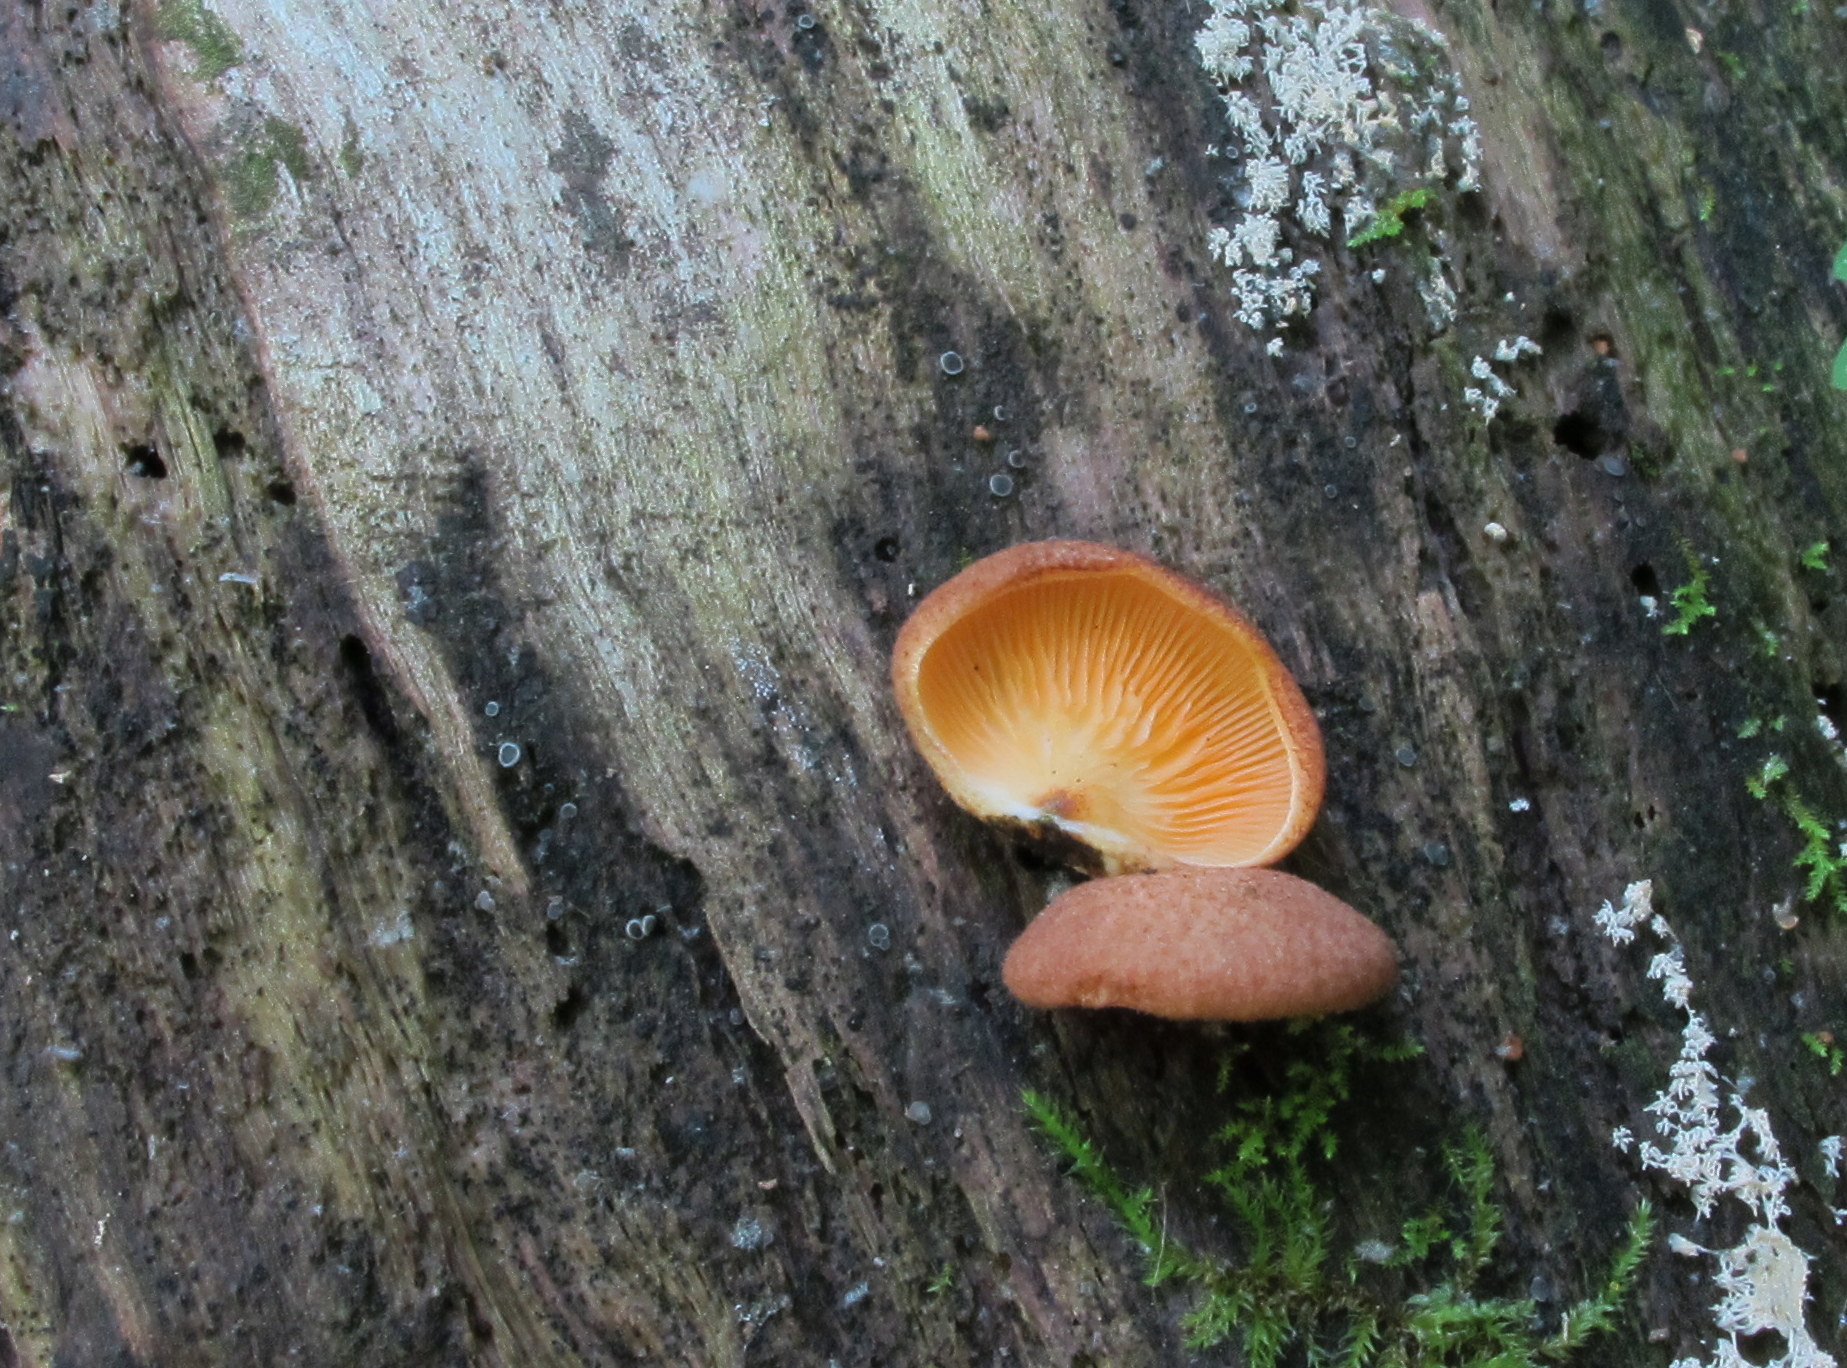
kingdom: Fungi
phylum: Basidiomycota
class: Agaricomycetes
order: Agaricales
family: Crepidotaceae
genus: Crepidotus
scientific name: Crepidotus crocophyllus
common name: Saffron oysterling
